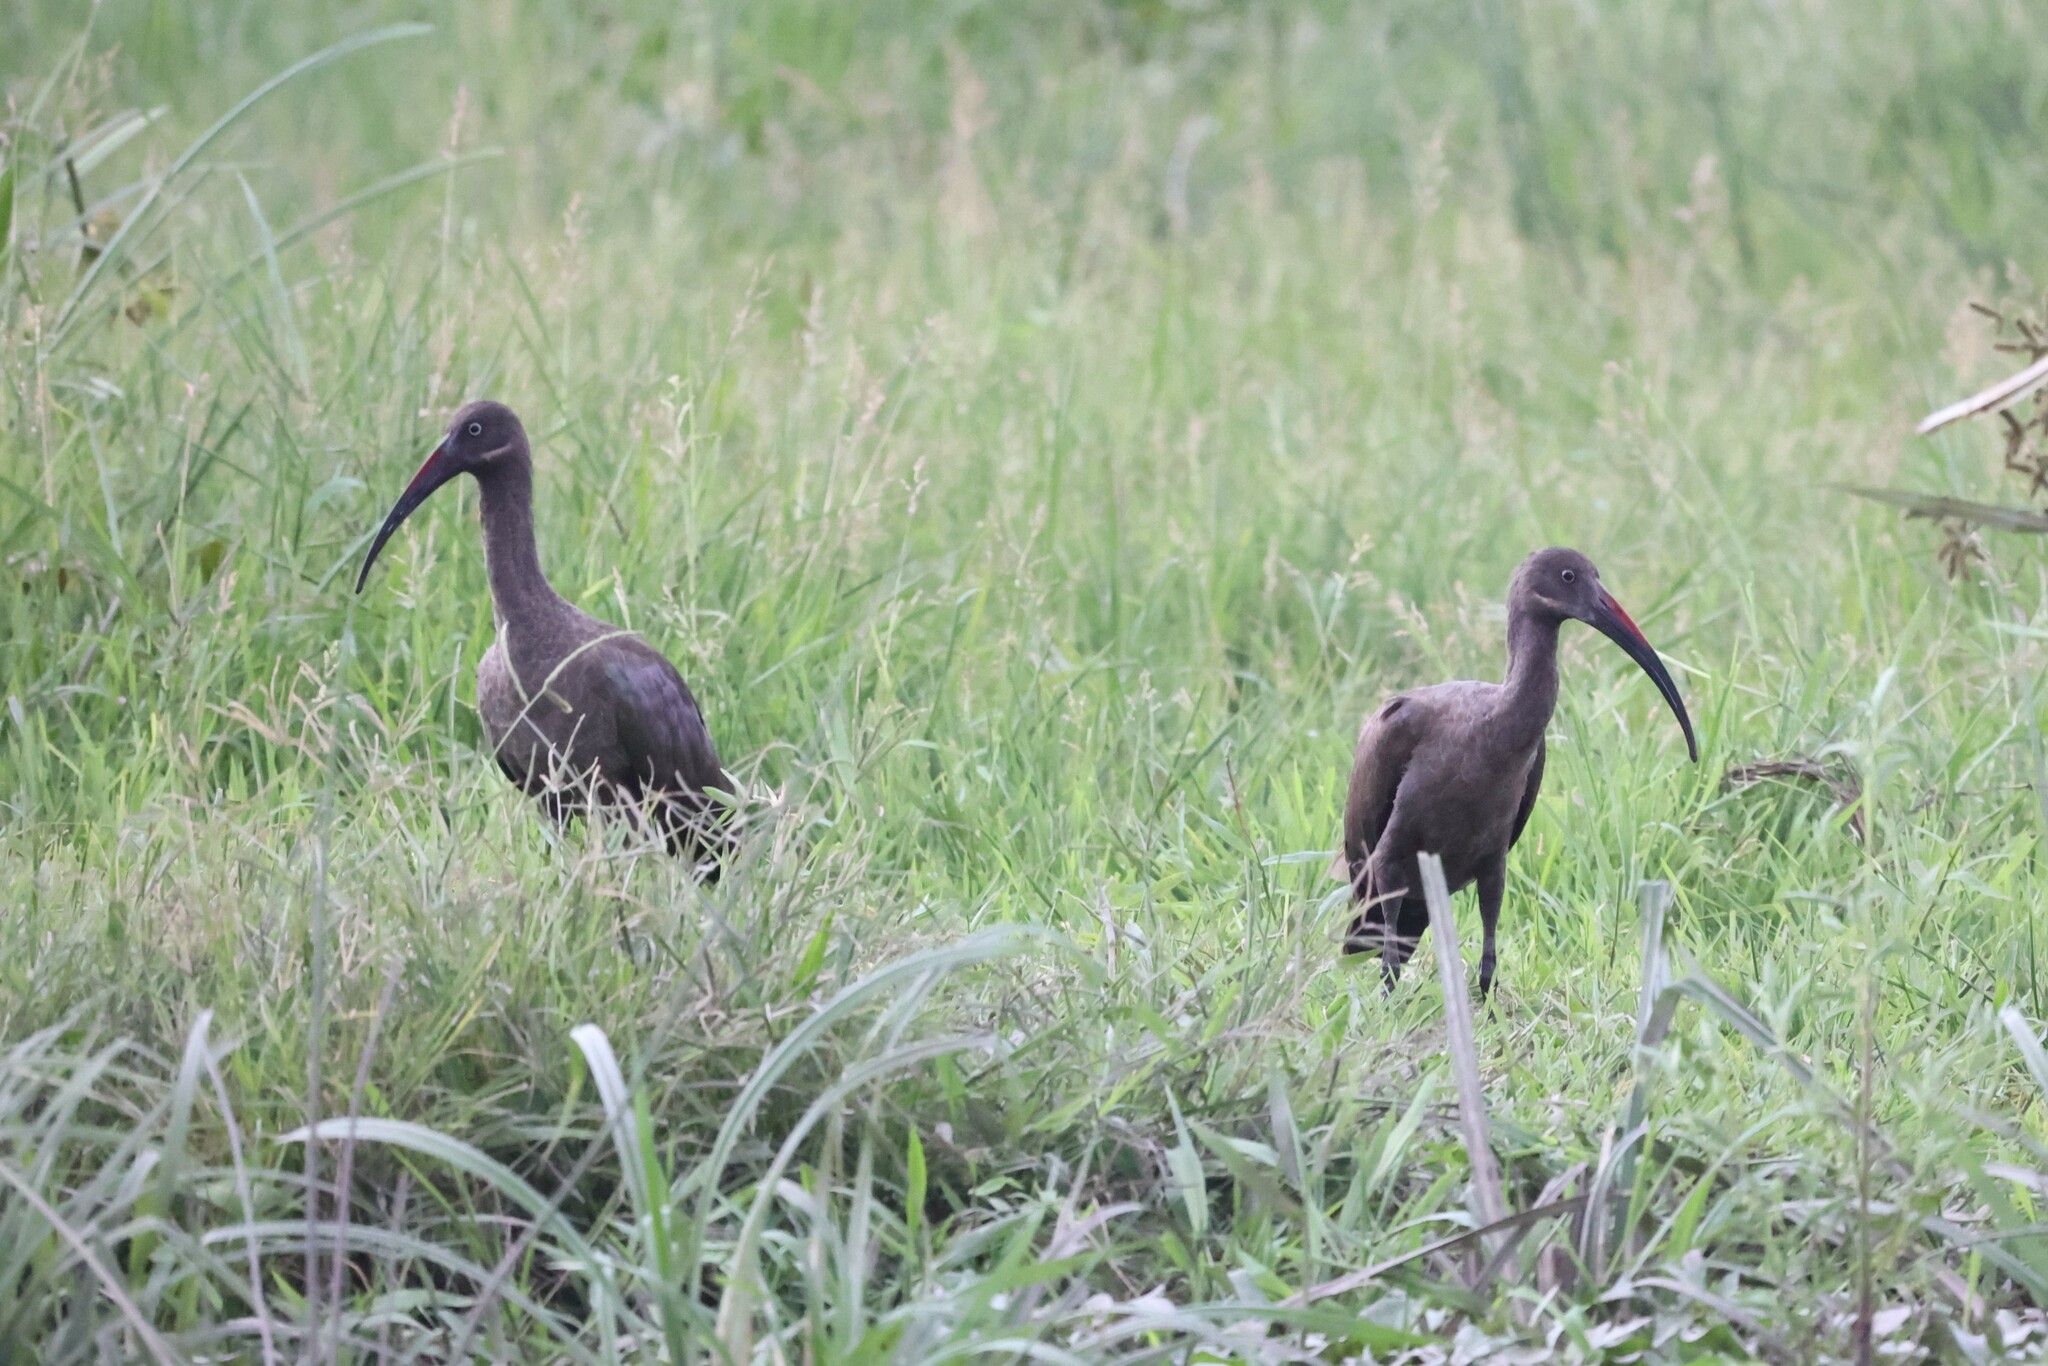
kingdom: Animalia
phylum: Chordata
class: Aves
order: Pelecaniformes
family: Threskiornithidae
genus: Bostrychia
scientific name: Bostrychia hagedash
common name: Hadada ibis
